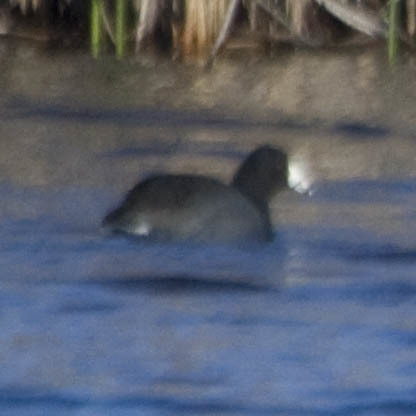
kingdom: Animalia
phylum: Chordata
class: Aves
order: Gruiformes
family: Rallidae
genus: Fulica
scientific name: Fulica americana
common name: American coot
